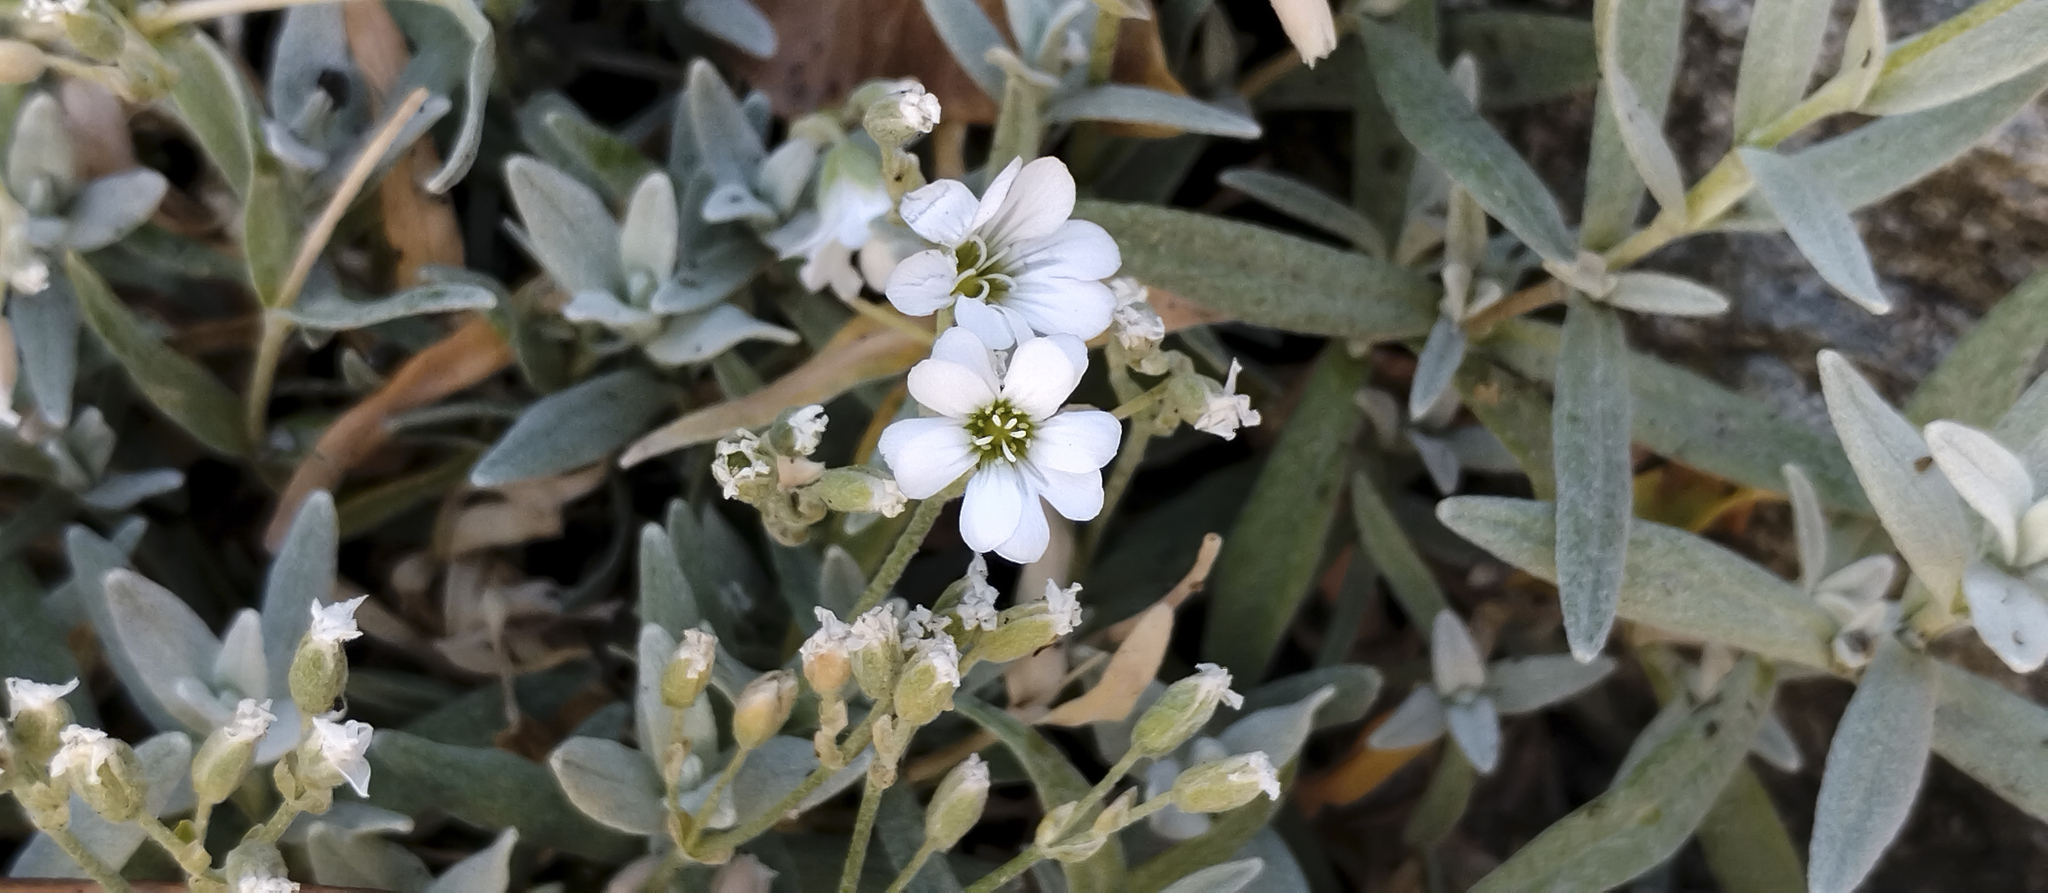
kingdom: Plantae
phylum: Tracheophyta
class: Magnoliopsida
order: Caryophyllales
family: Caryophyllaceae
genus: Cerastium
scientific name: Cerastium tomentosum
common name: Snow-in-summer
